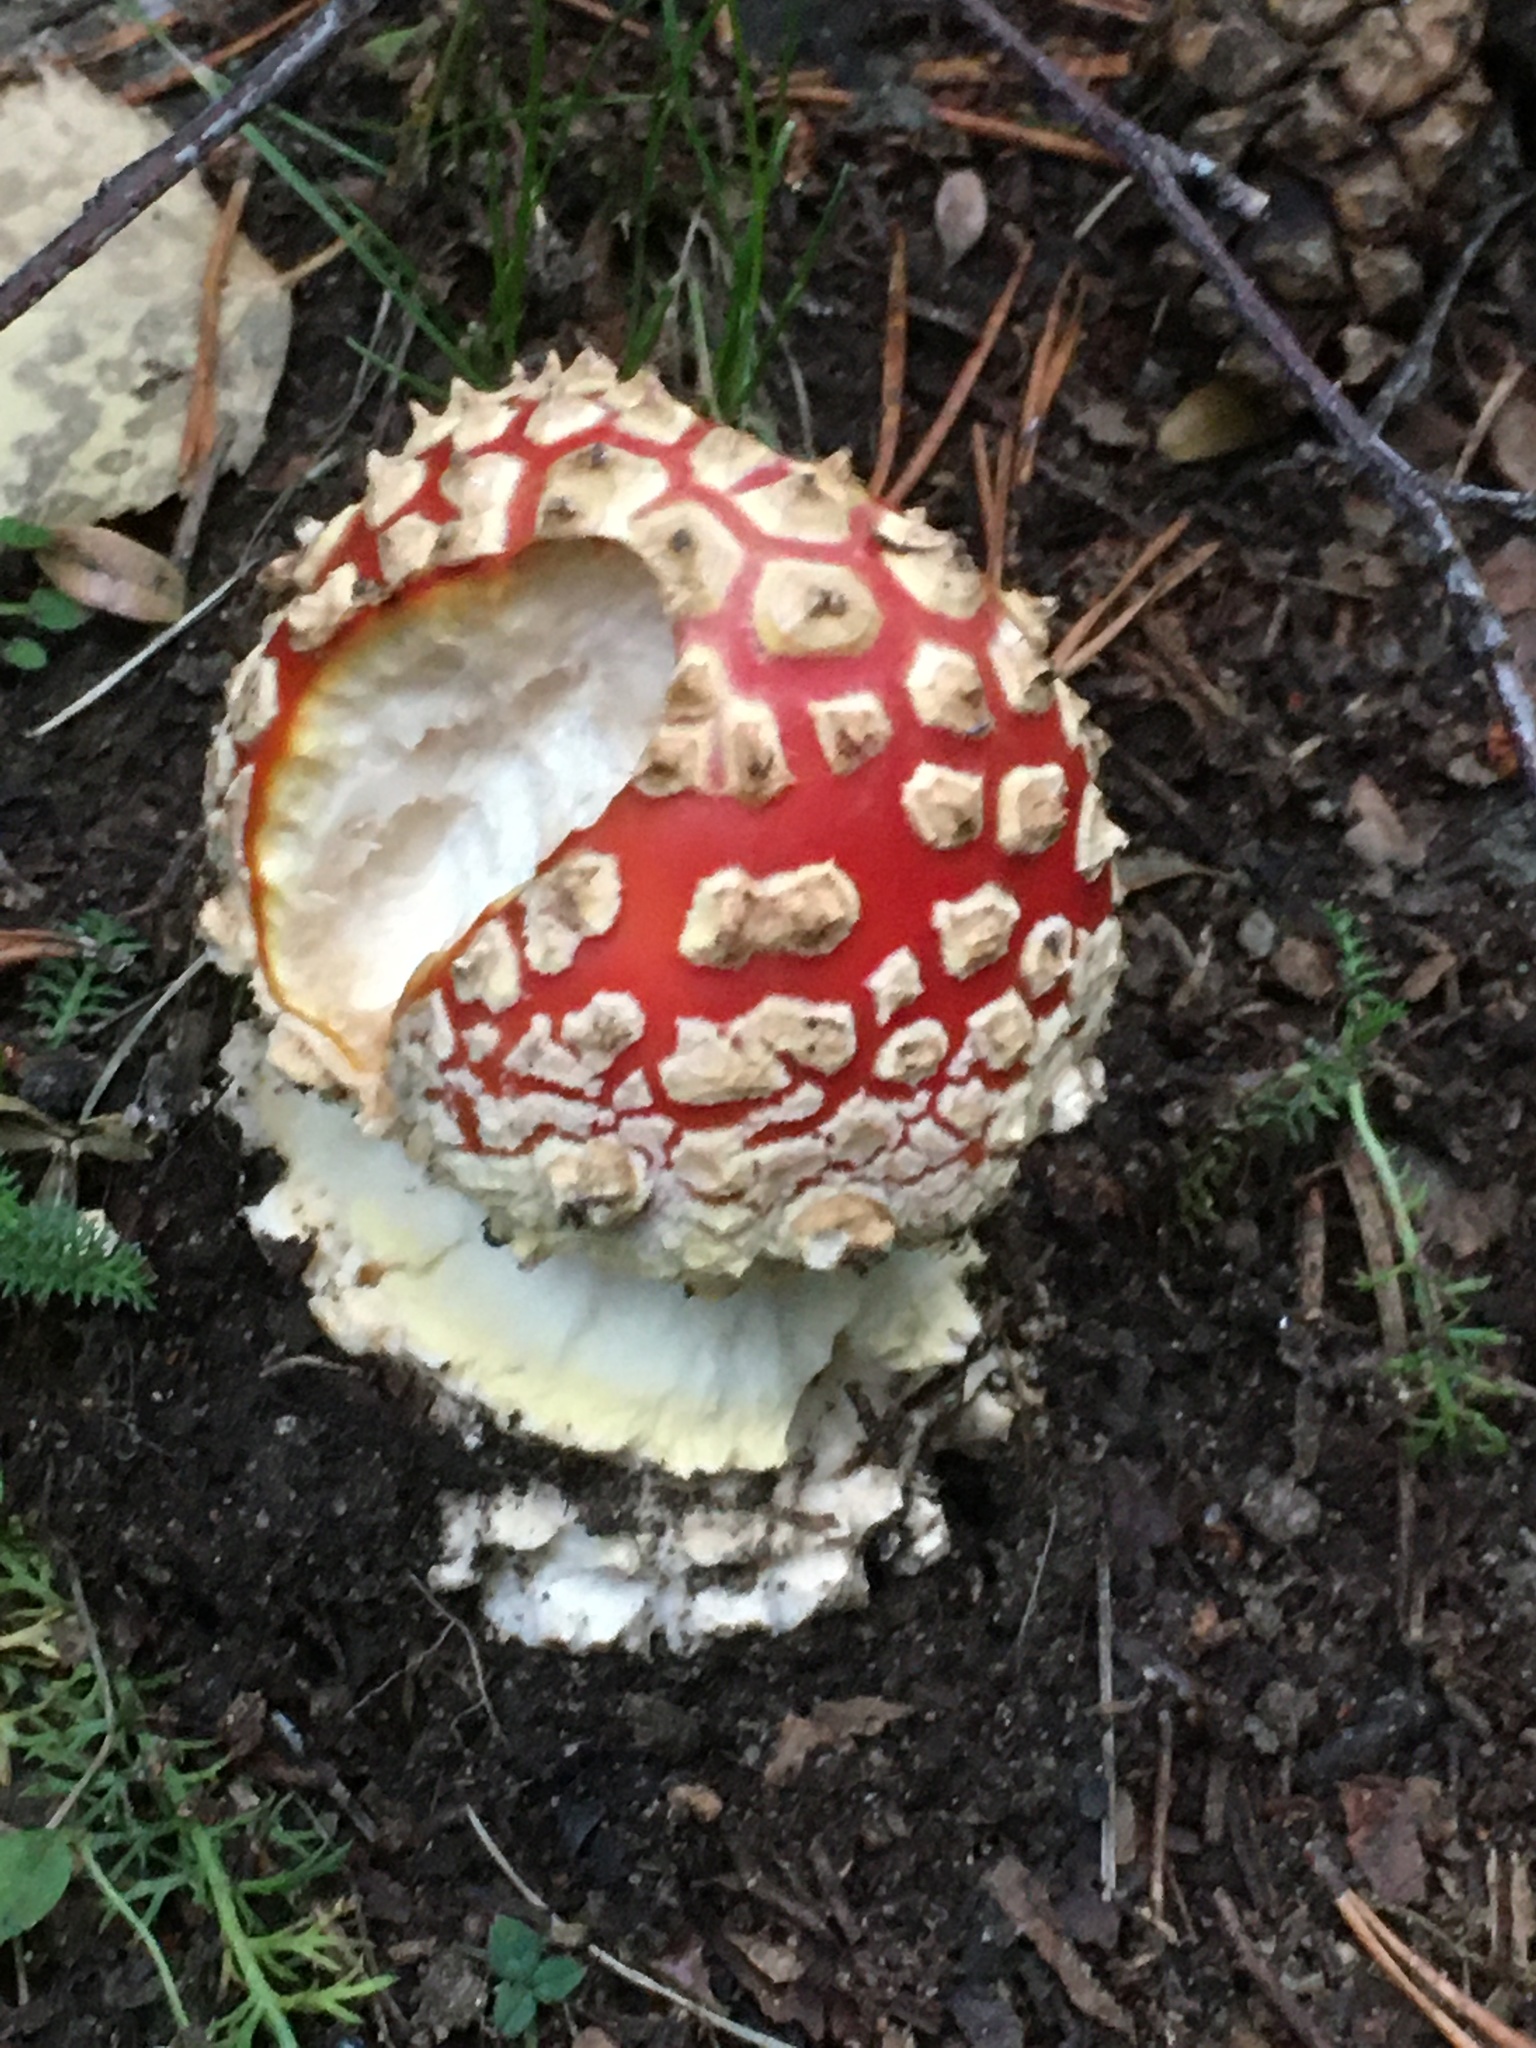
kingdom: Fungi
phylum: Basidiomycota
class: Agaricomycetes
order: Agaricales
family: Amanitaceae
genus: Amanita
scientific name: Amanita muscaria
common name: Fly agaric
